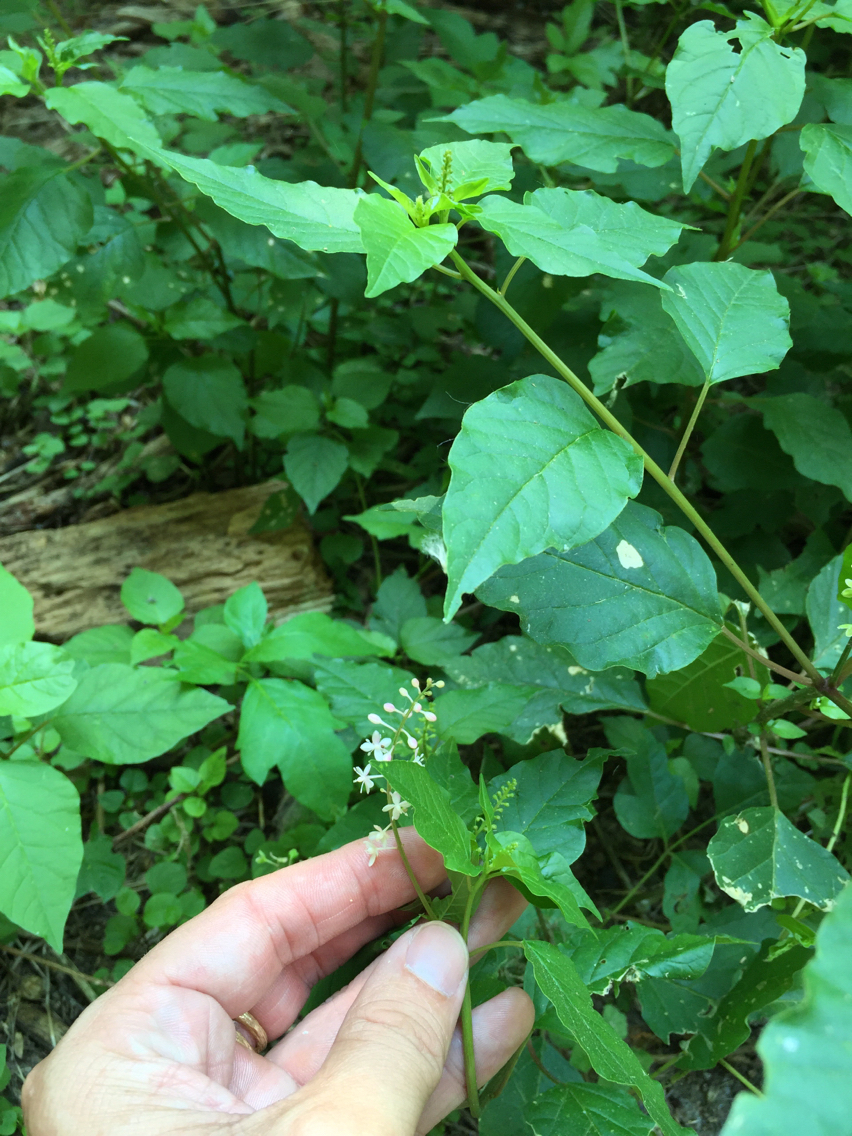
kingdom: Plantae
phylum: Tracheophyta
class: Magnoliopsida
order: Caryophyllales
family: Phytolaccaceae
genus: Rivina
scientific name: Rivina humilis
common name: Rougeplant
